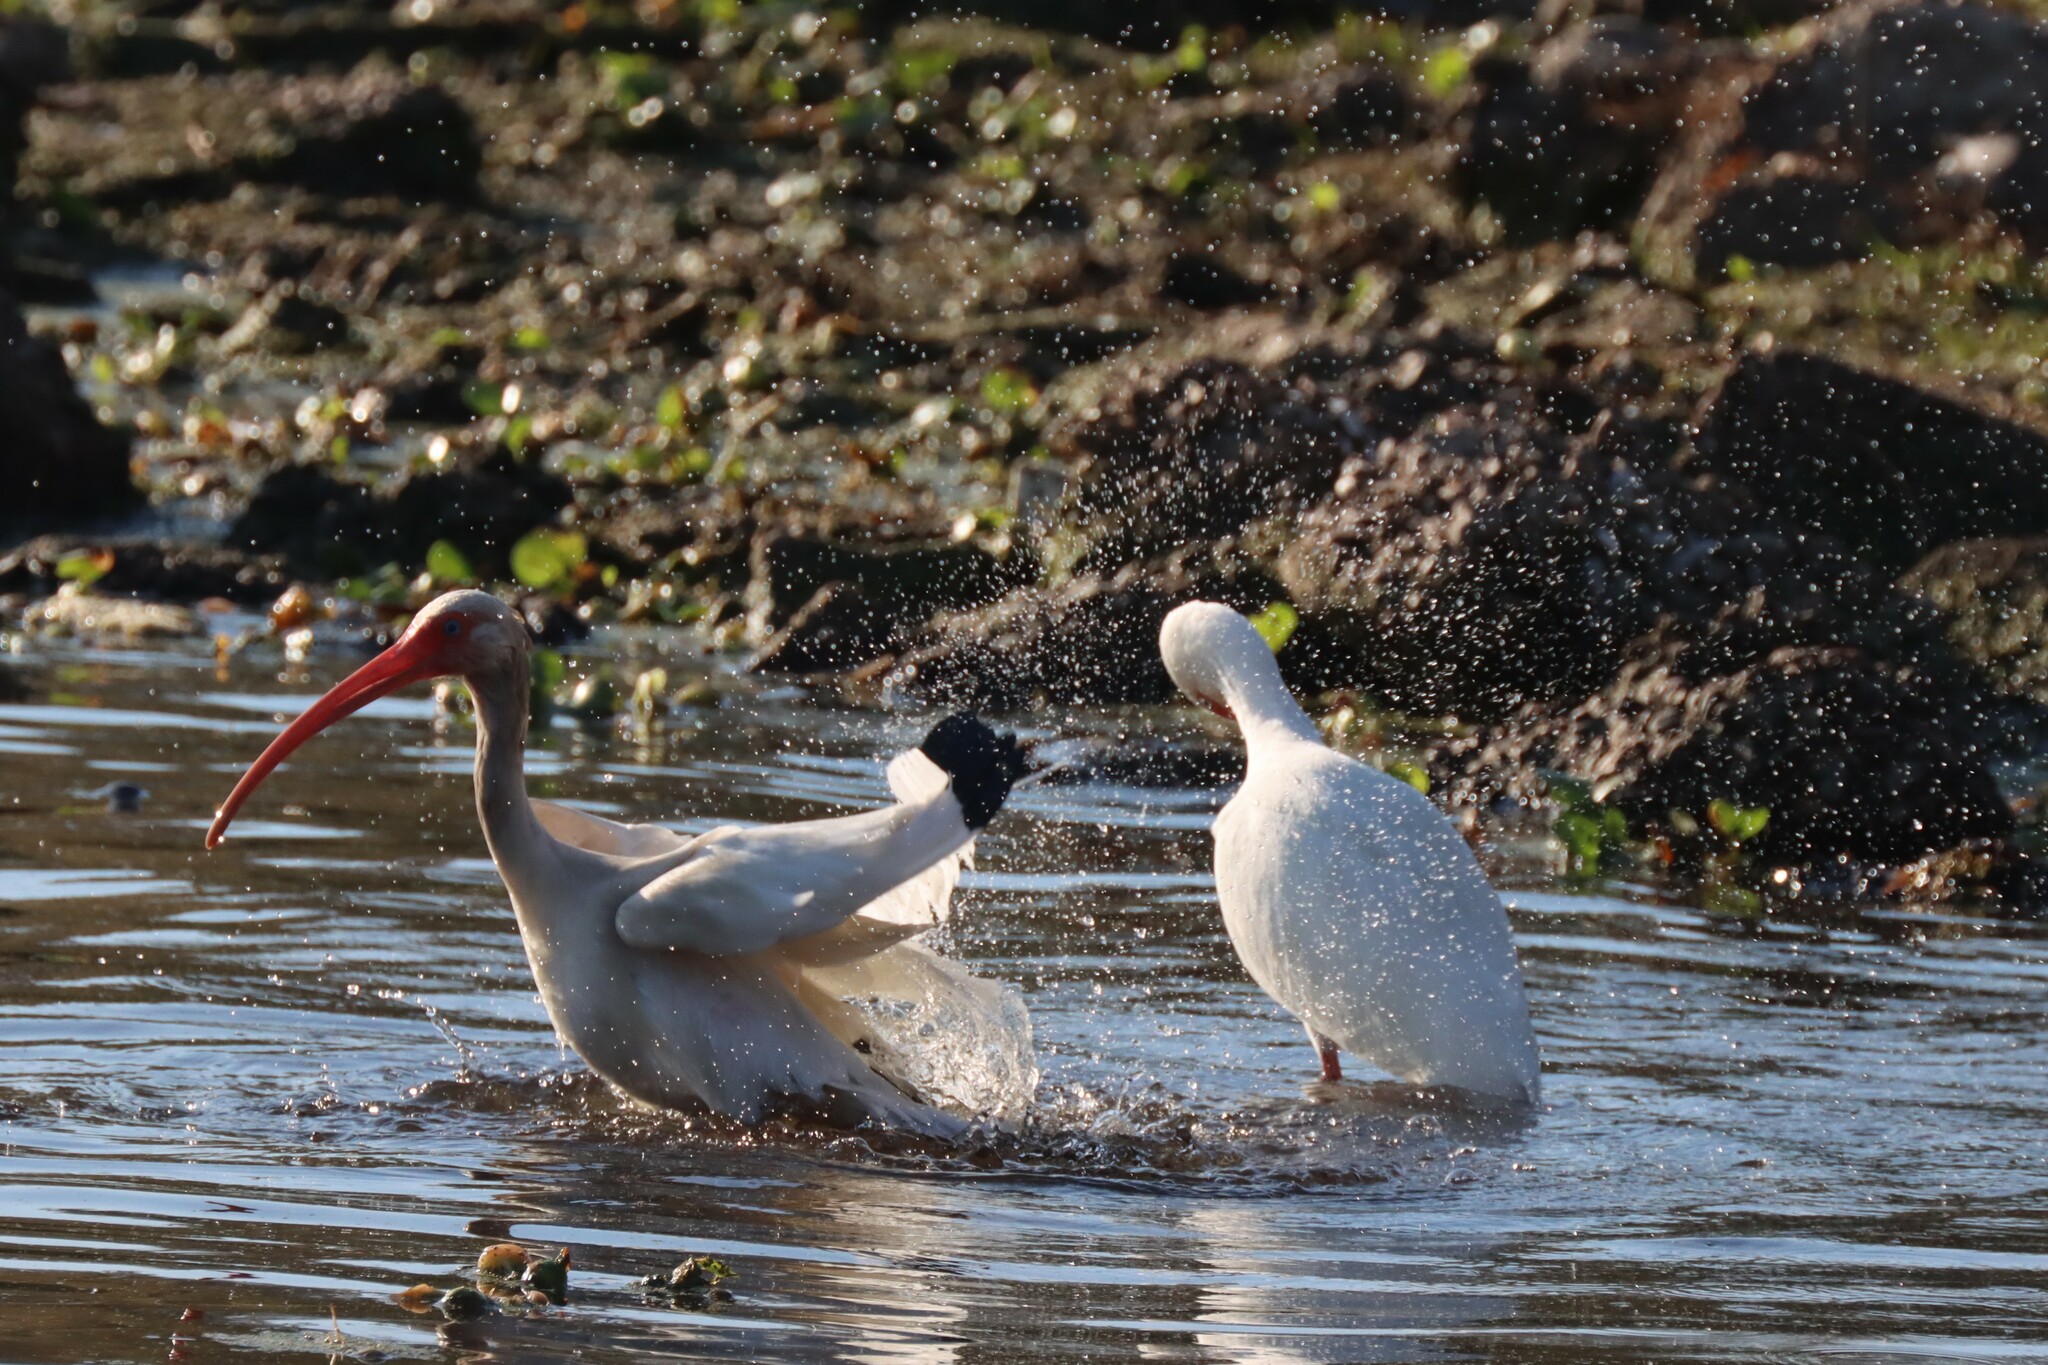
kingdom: Animalia
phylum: Chordata
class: Aves
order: Pelecaniformes
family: Threskiornithidae
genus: Eudocimus
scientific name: Eudocimus albus
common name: White ibis
